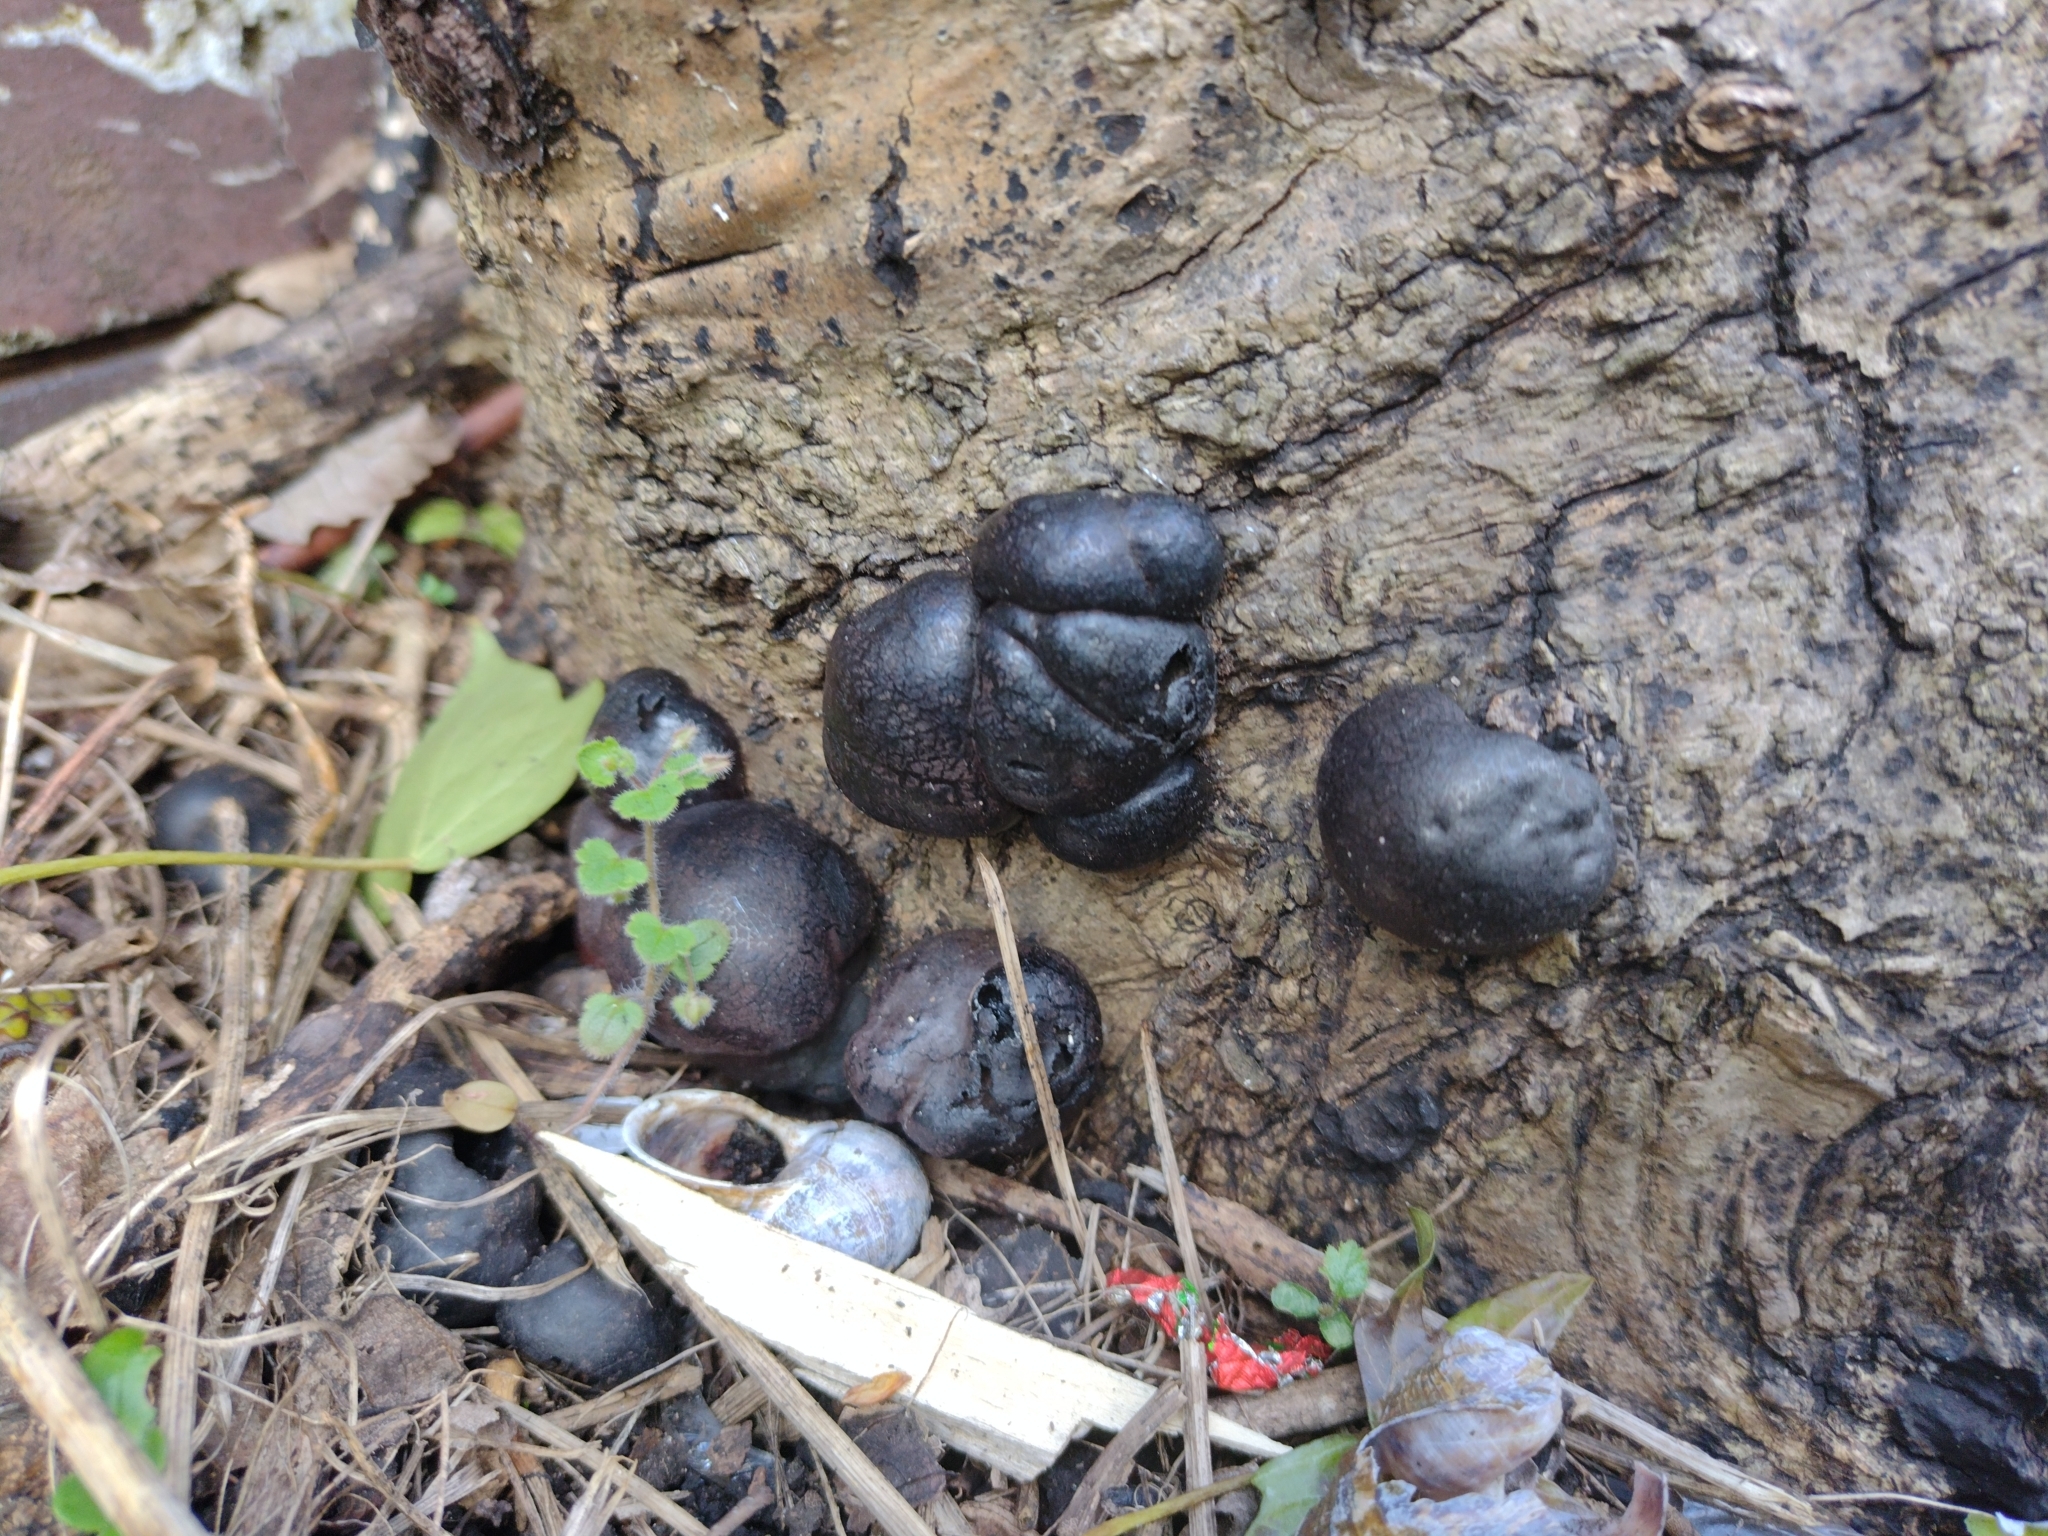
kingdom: Fungi
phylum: Ascomycota
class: Sordariomycetes
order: Xylariales
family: Hypoxylaceae
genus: Daldinia
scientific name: Daldinia concentrica
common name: Cramp balls
